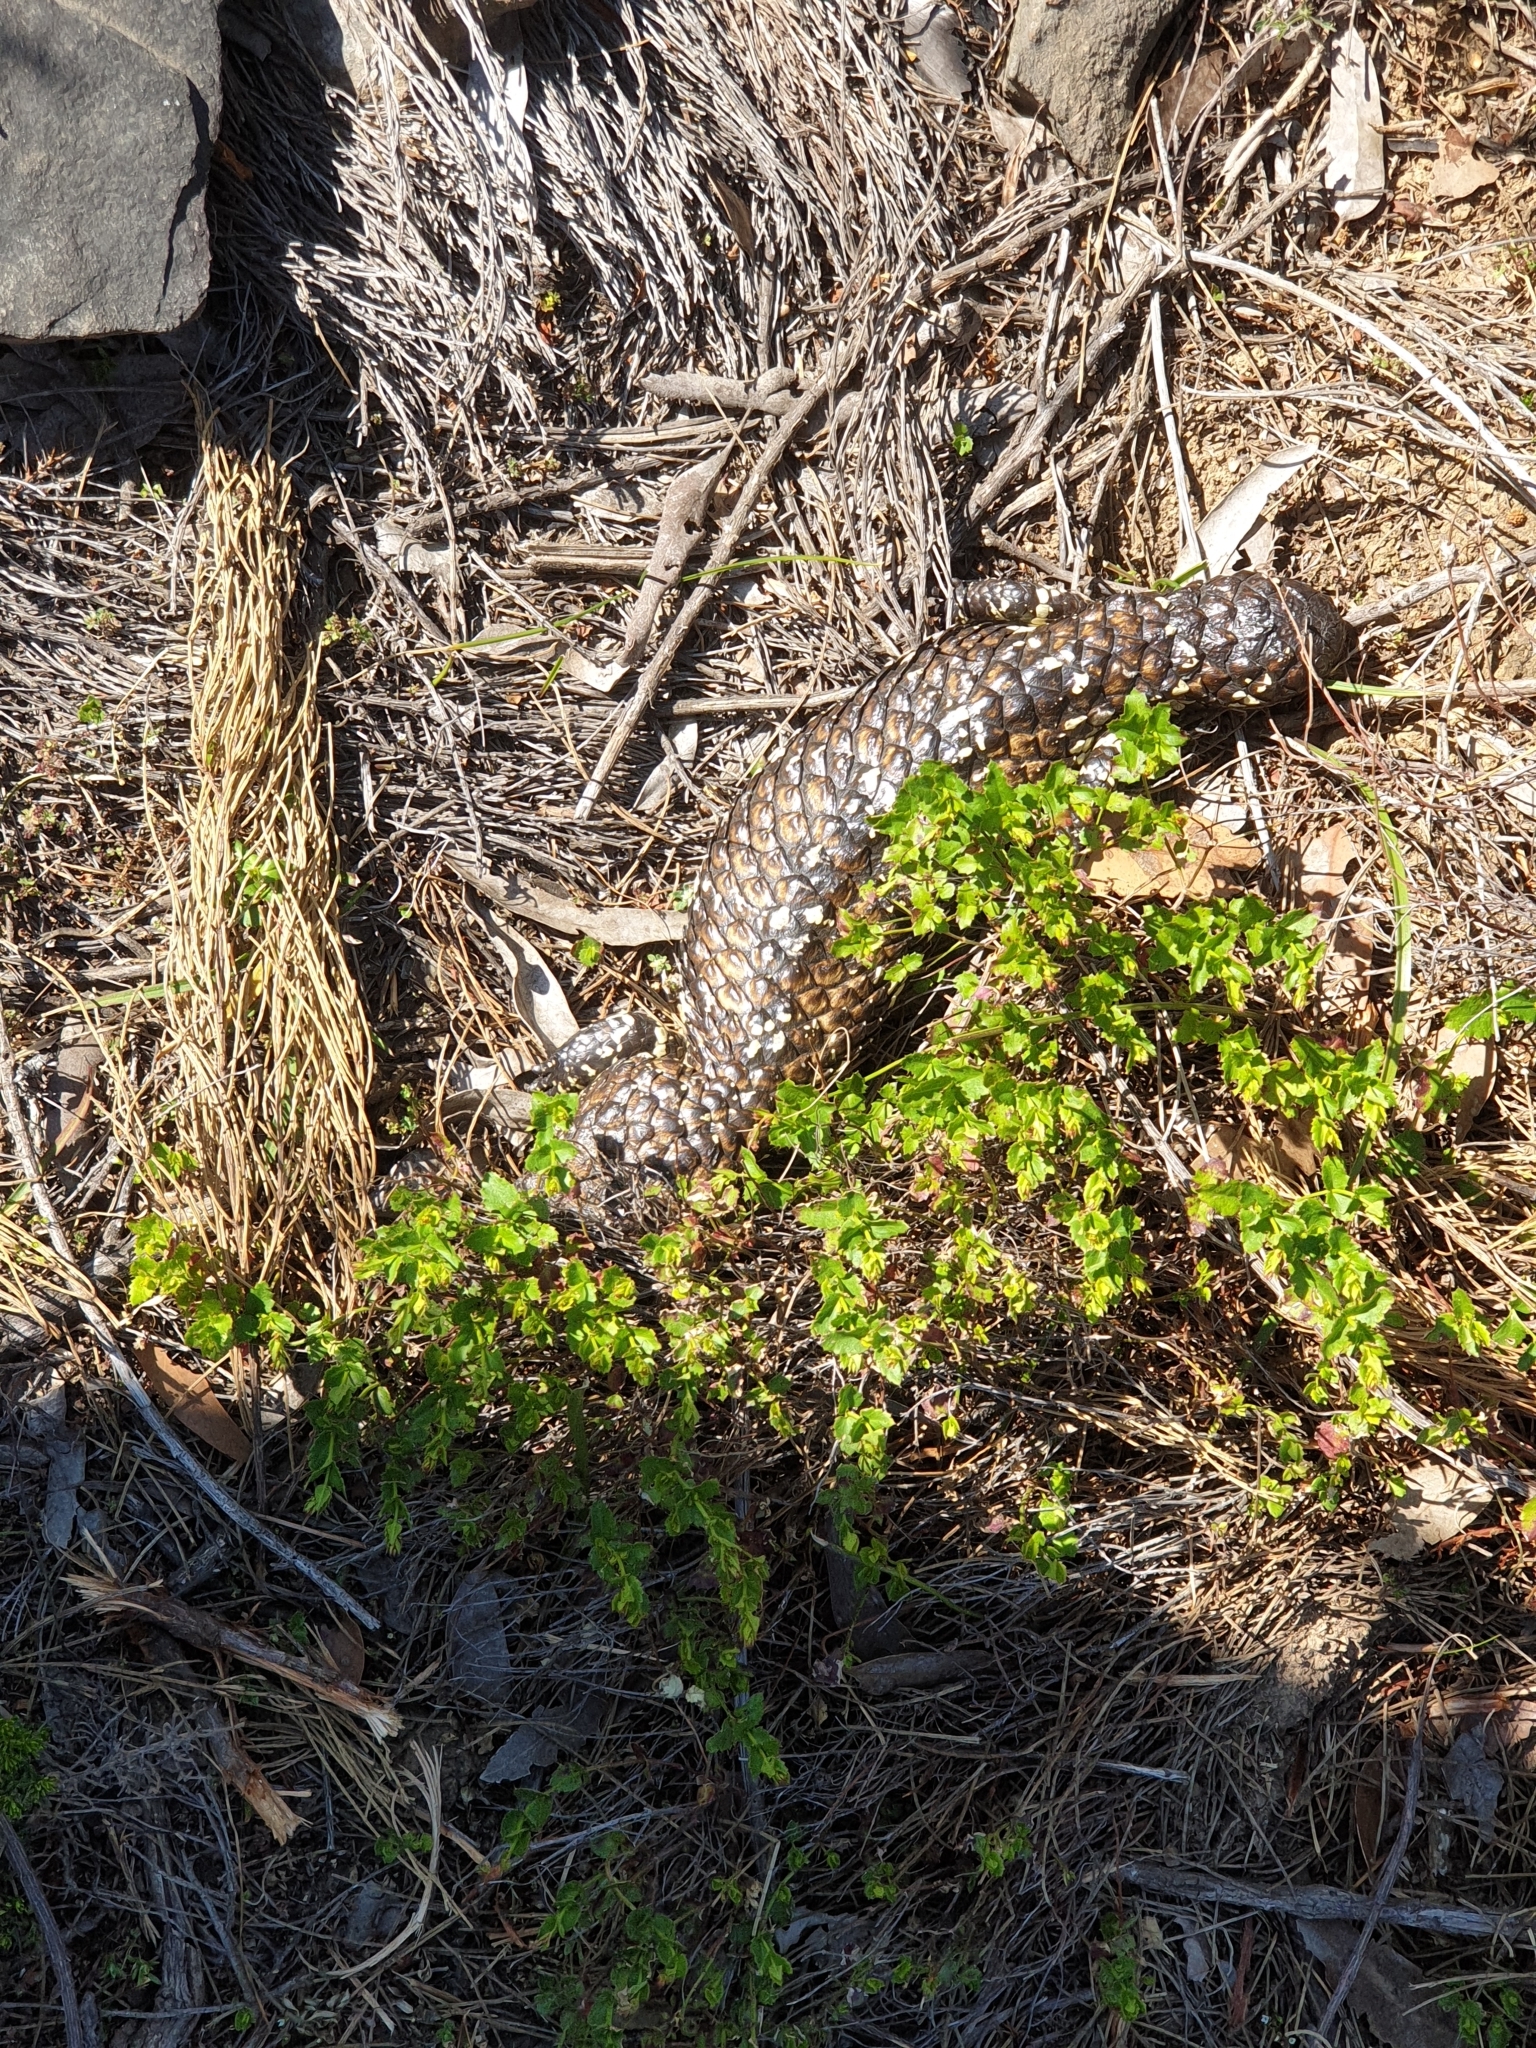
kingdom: Animalia
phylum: Chordata
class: Squamata
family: Scincidae
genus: Tiliqua
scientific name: Tiliqua rugosa
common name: Pinecone lizard
